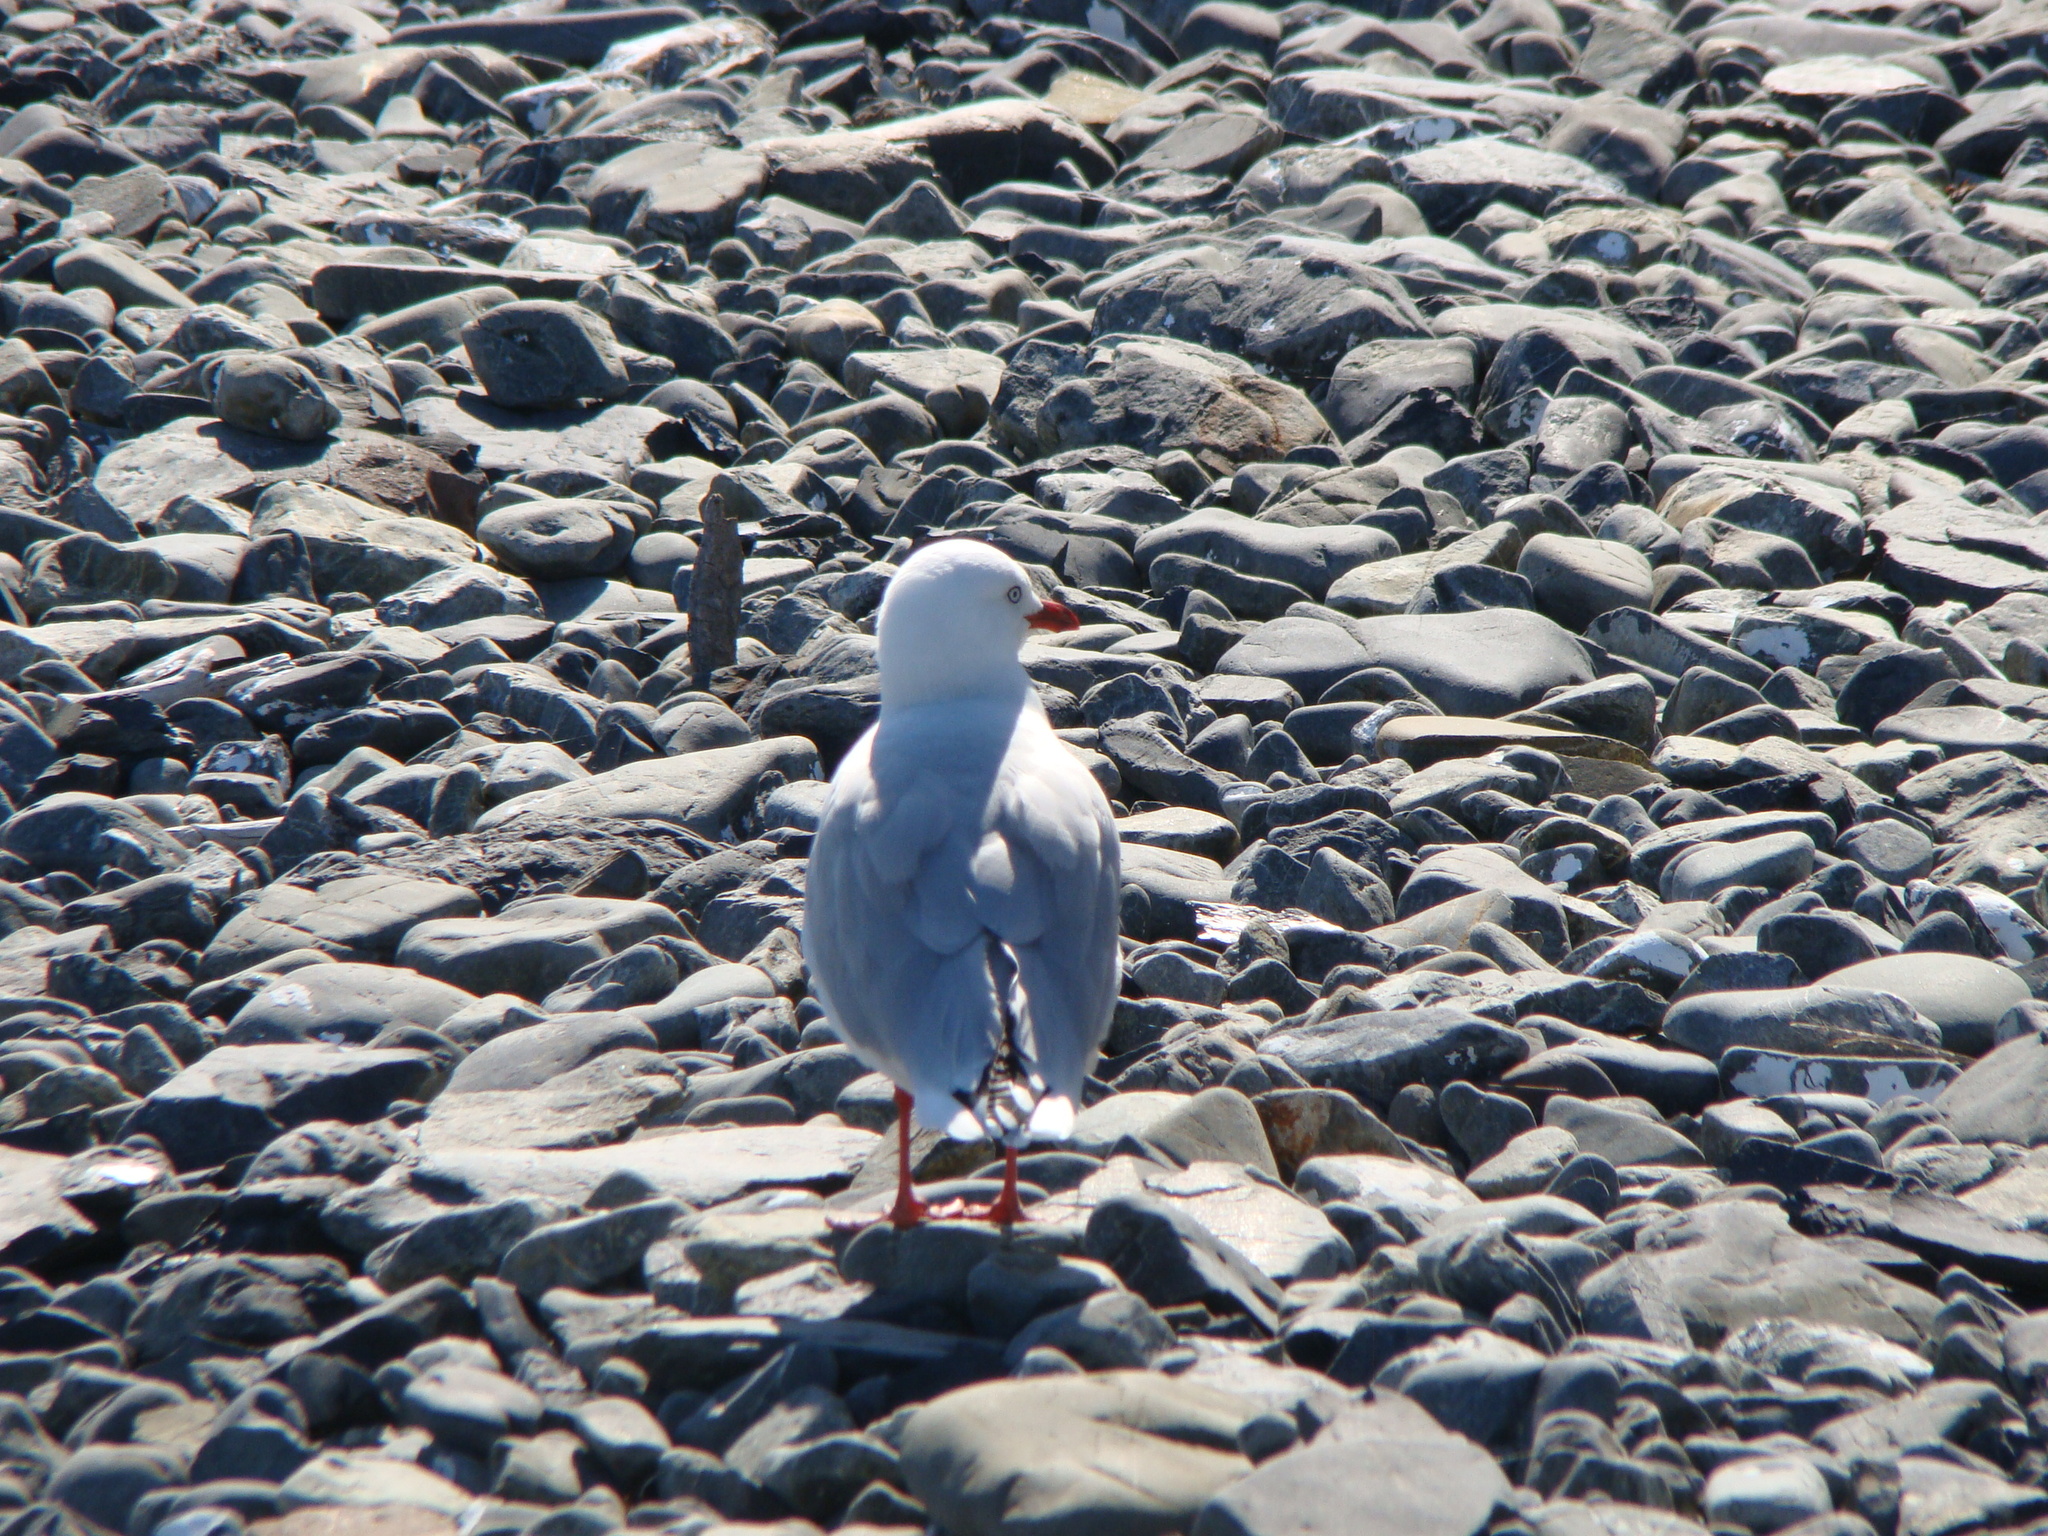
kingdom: Animalia
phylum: Chordata
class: Aves
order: Charadriiformes
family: Laridae
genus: Chroicocephalus
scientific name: Chroicocephalus novaehollandiae
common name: Silver gull
